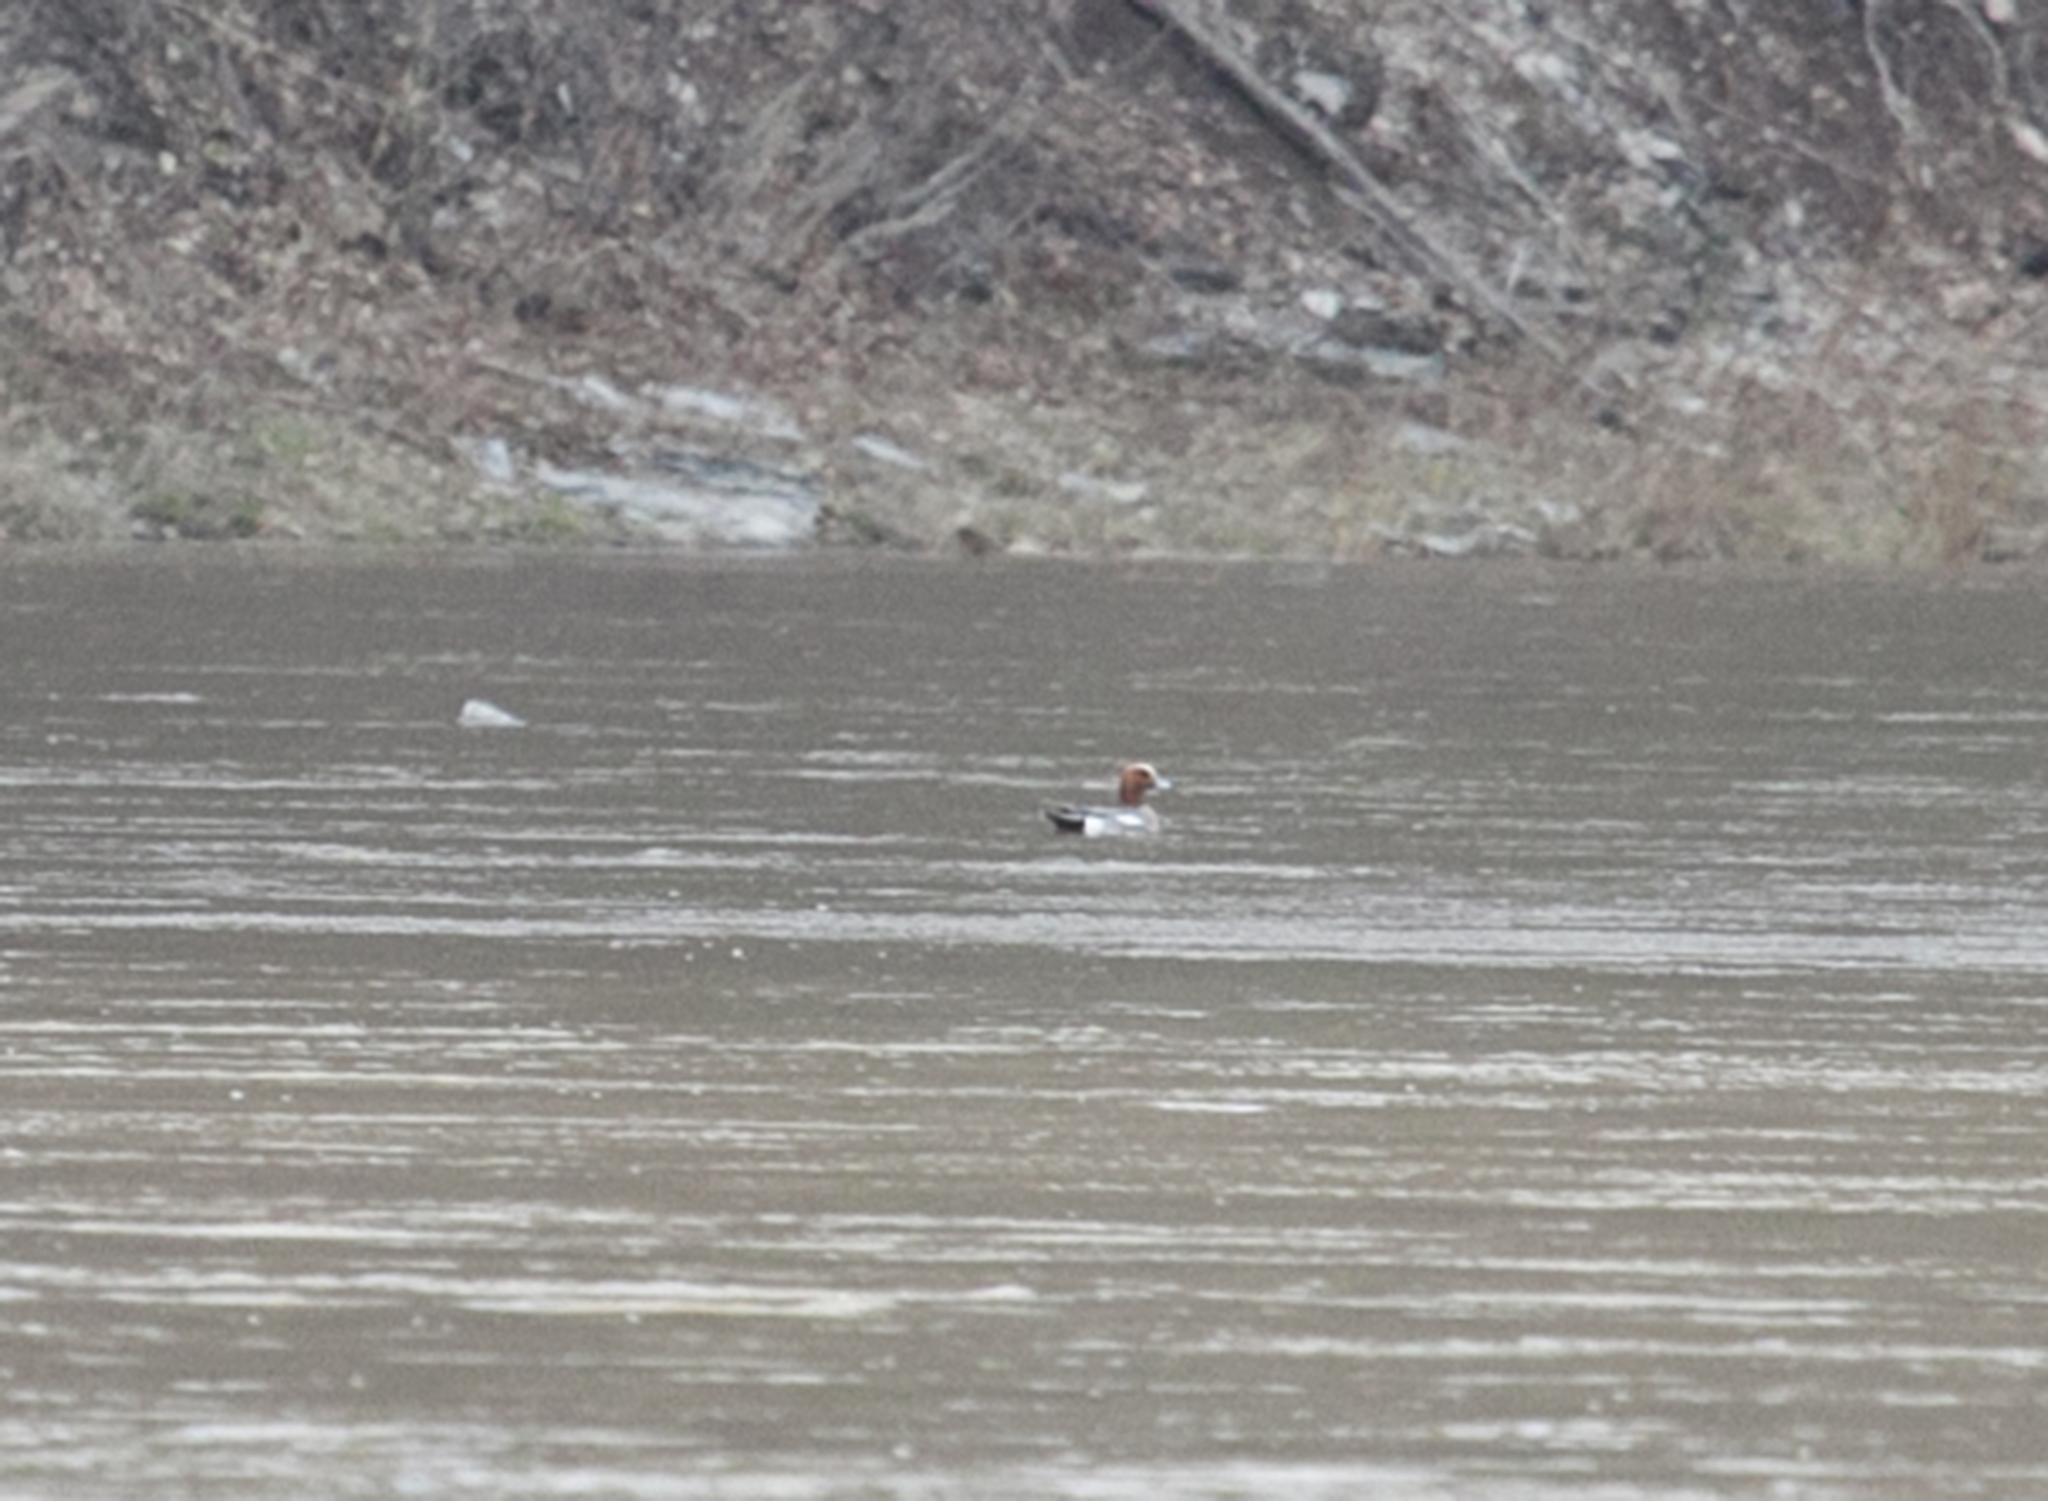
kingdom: Animalia
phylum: Chordata
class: Aves
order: Anseriformes
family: Anatidae
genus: Mareca
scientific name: Mareca penelope
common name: Eurasian wigeon
